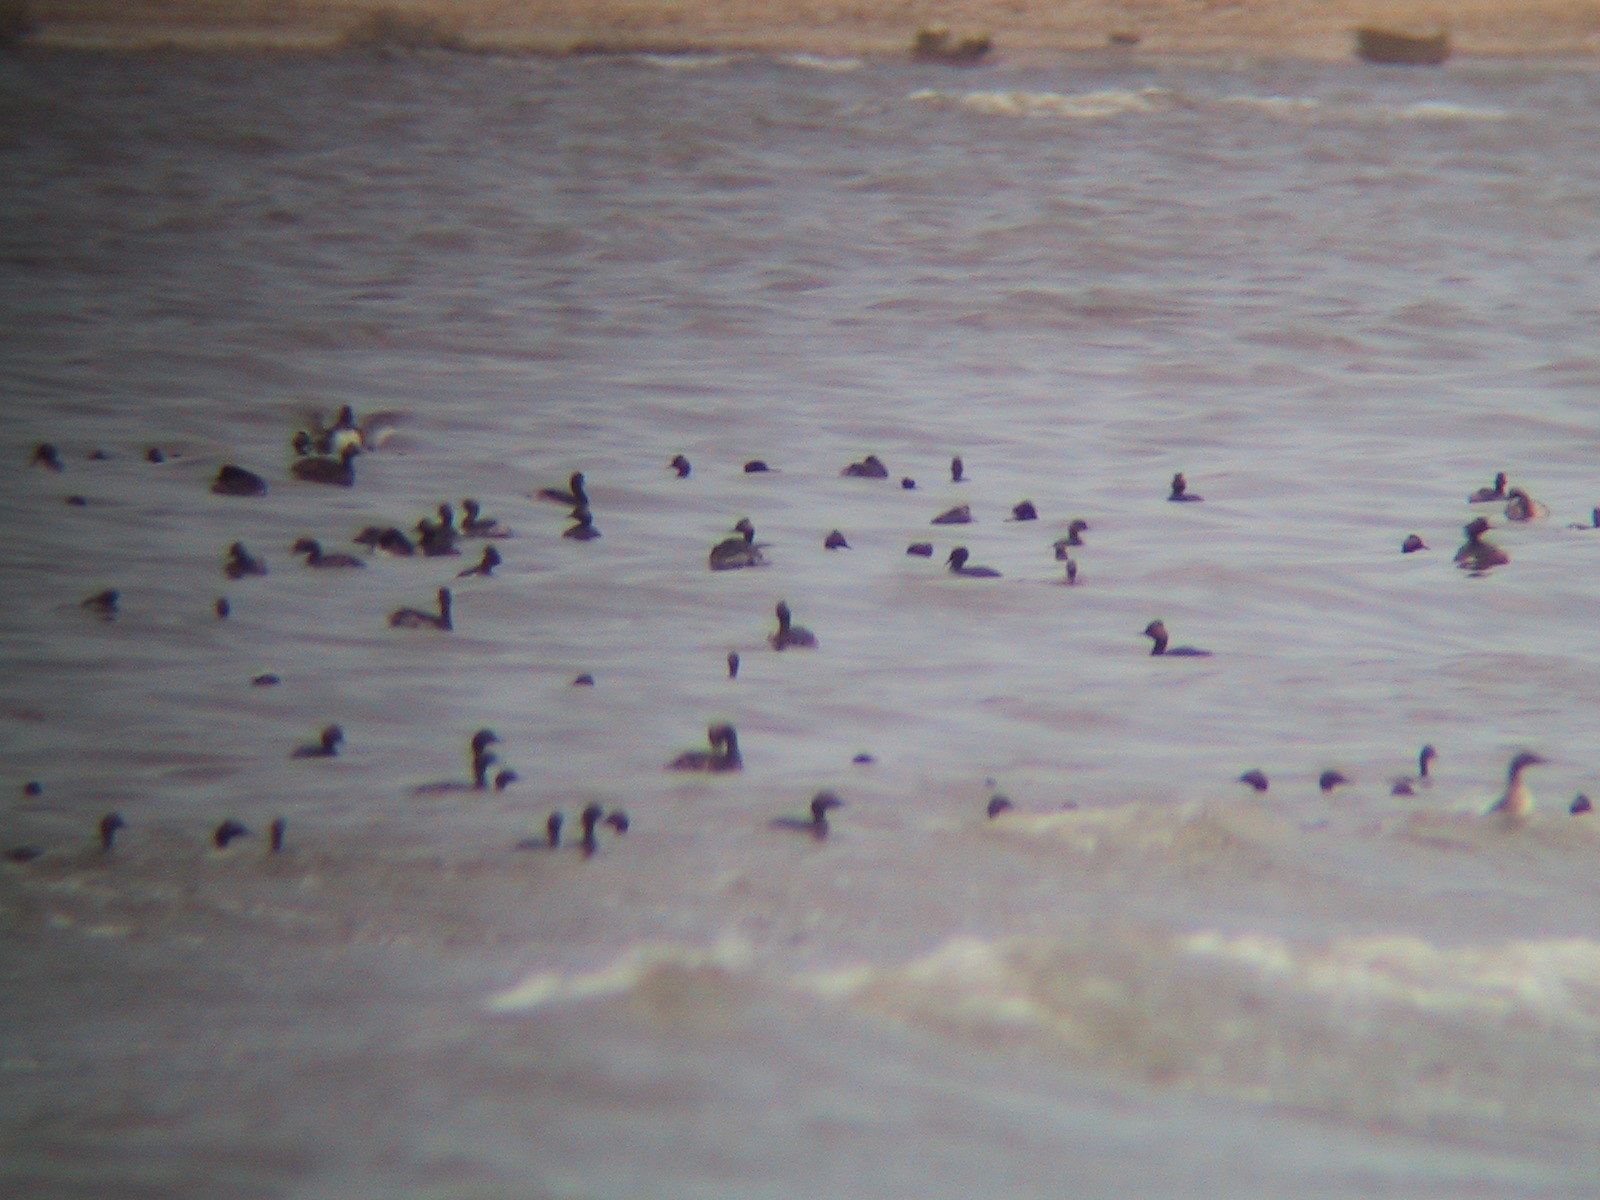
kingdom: Animalia
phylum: Chordata
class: Aves
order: Podicipediformes
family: Podicipedidae
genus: Podiceps
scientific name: Podiceps nigricollis
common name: Black-necked grebe
